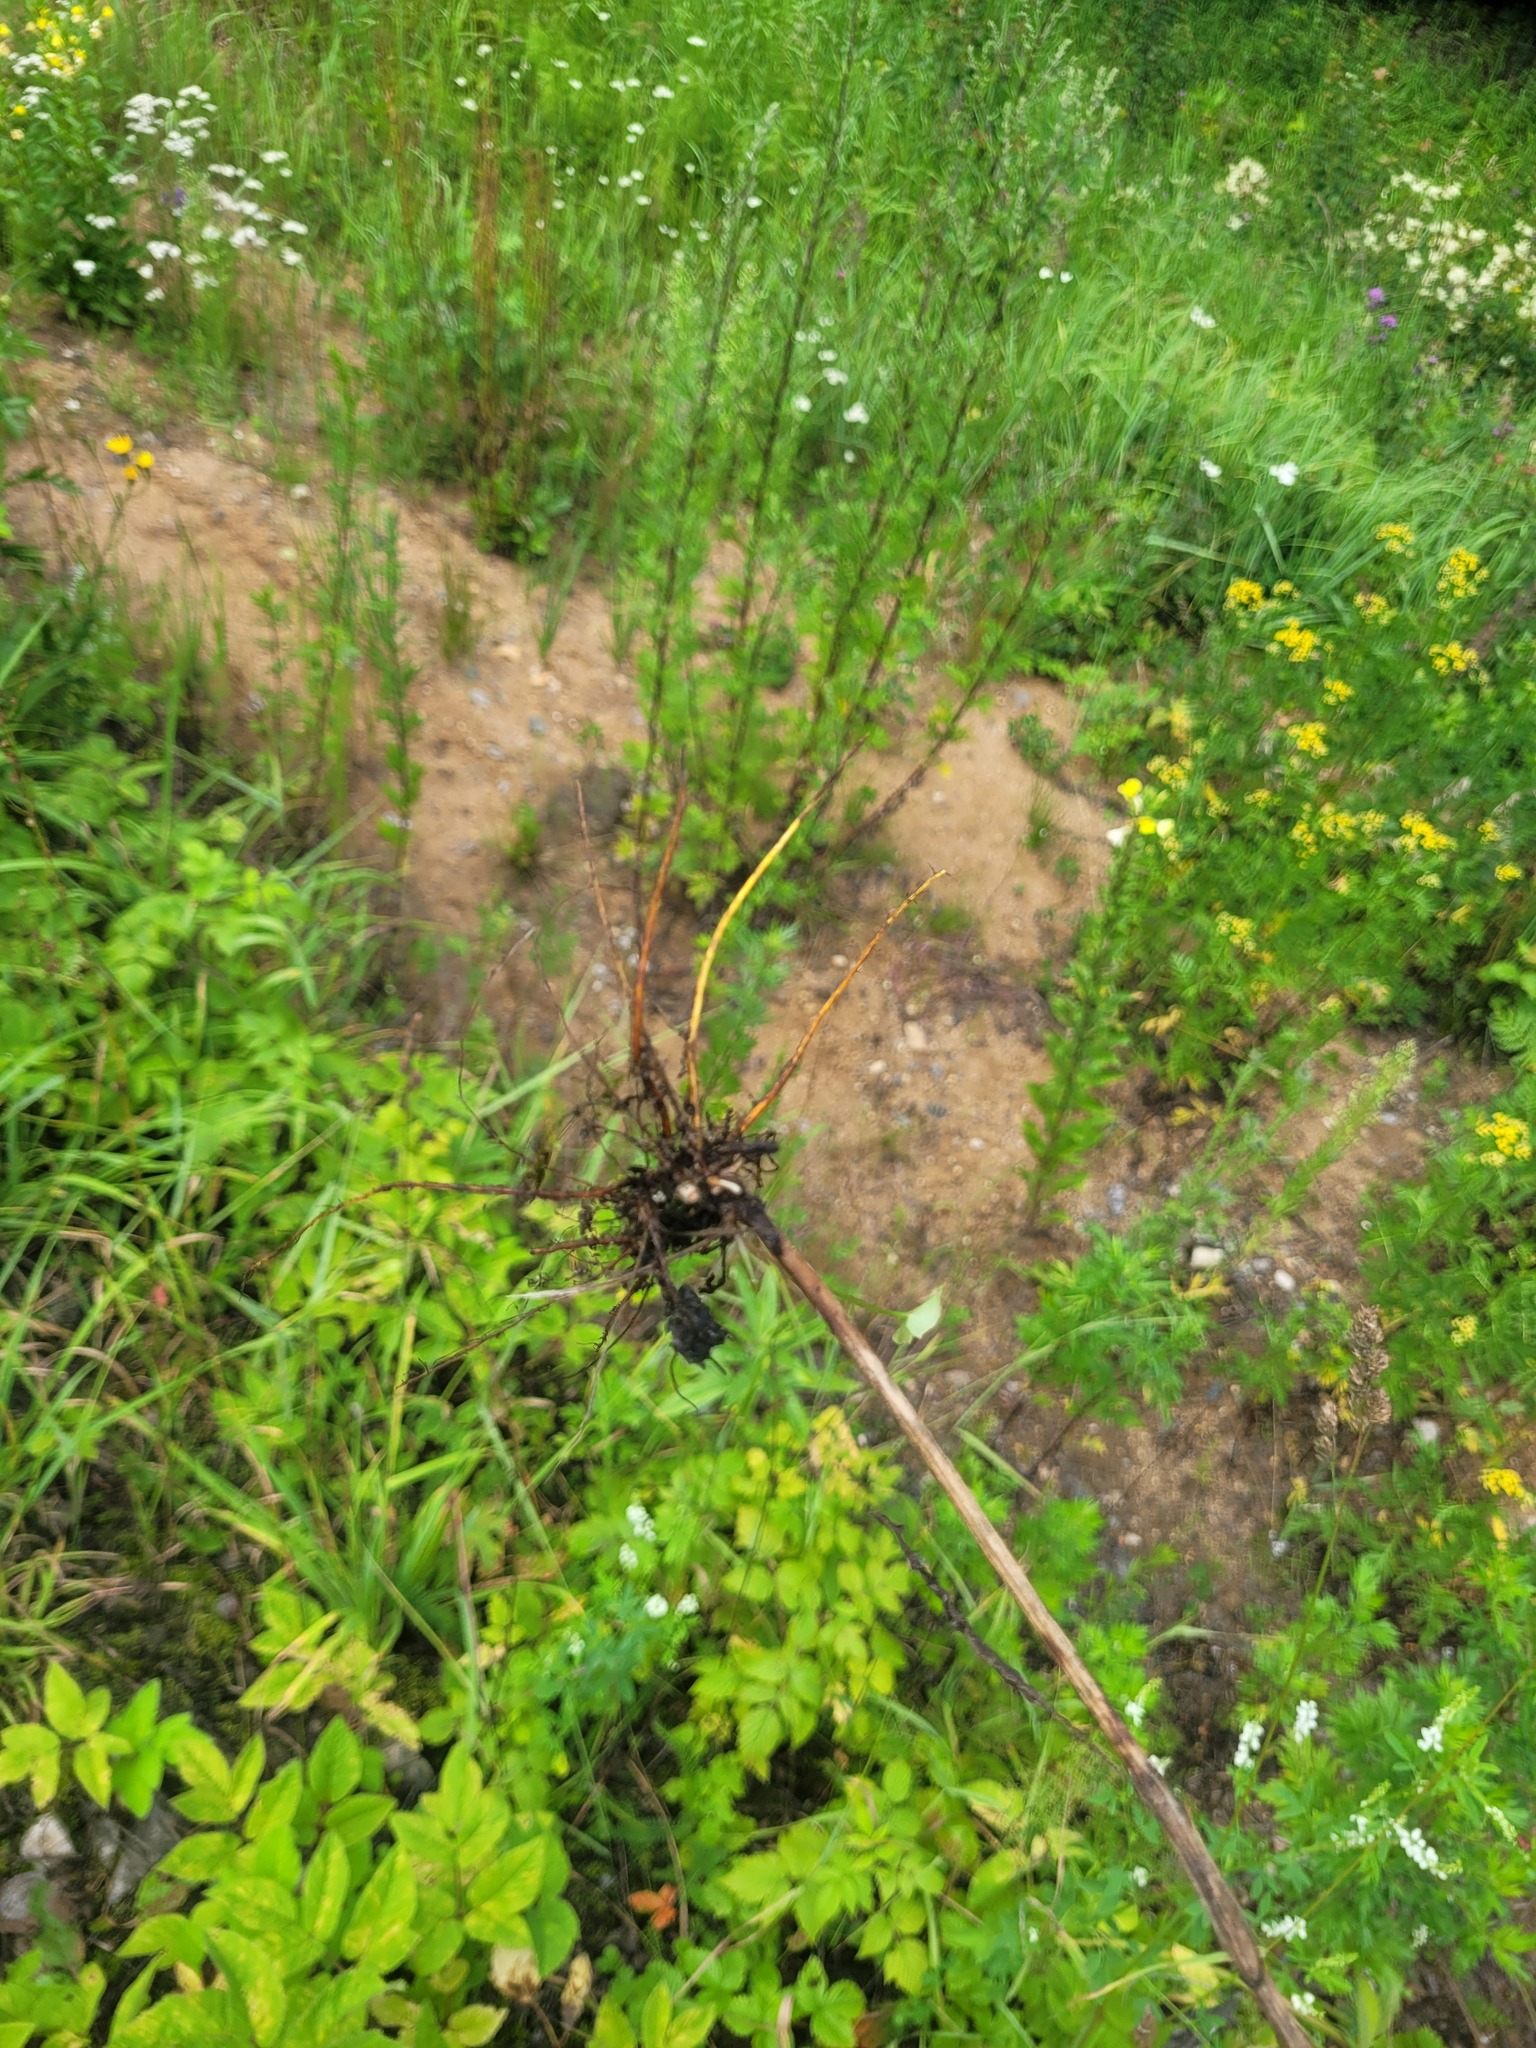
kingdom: Plantae
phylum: Tracheophyta
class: Magnoliopsida
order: Caryophyllales
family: Polygonaceae
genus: Rumex
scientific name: Rumex acetosa
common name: Garden sorrel
